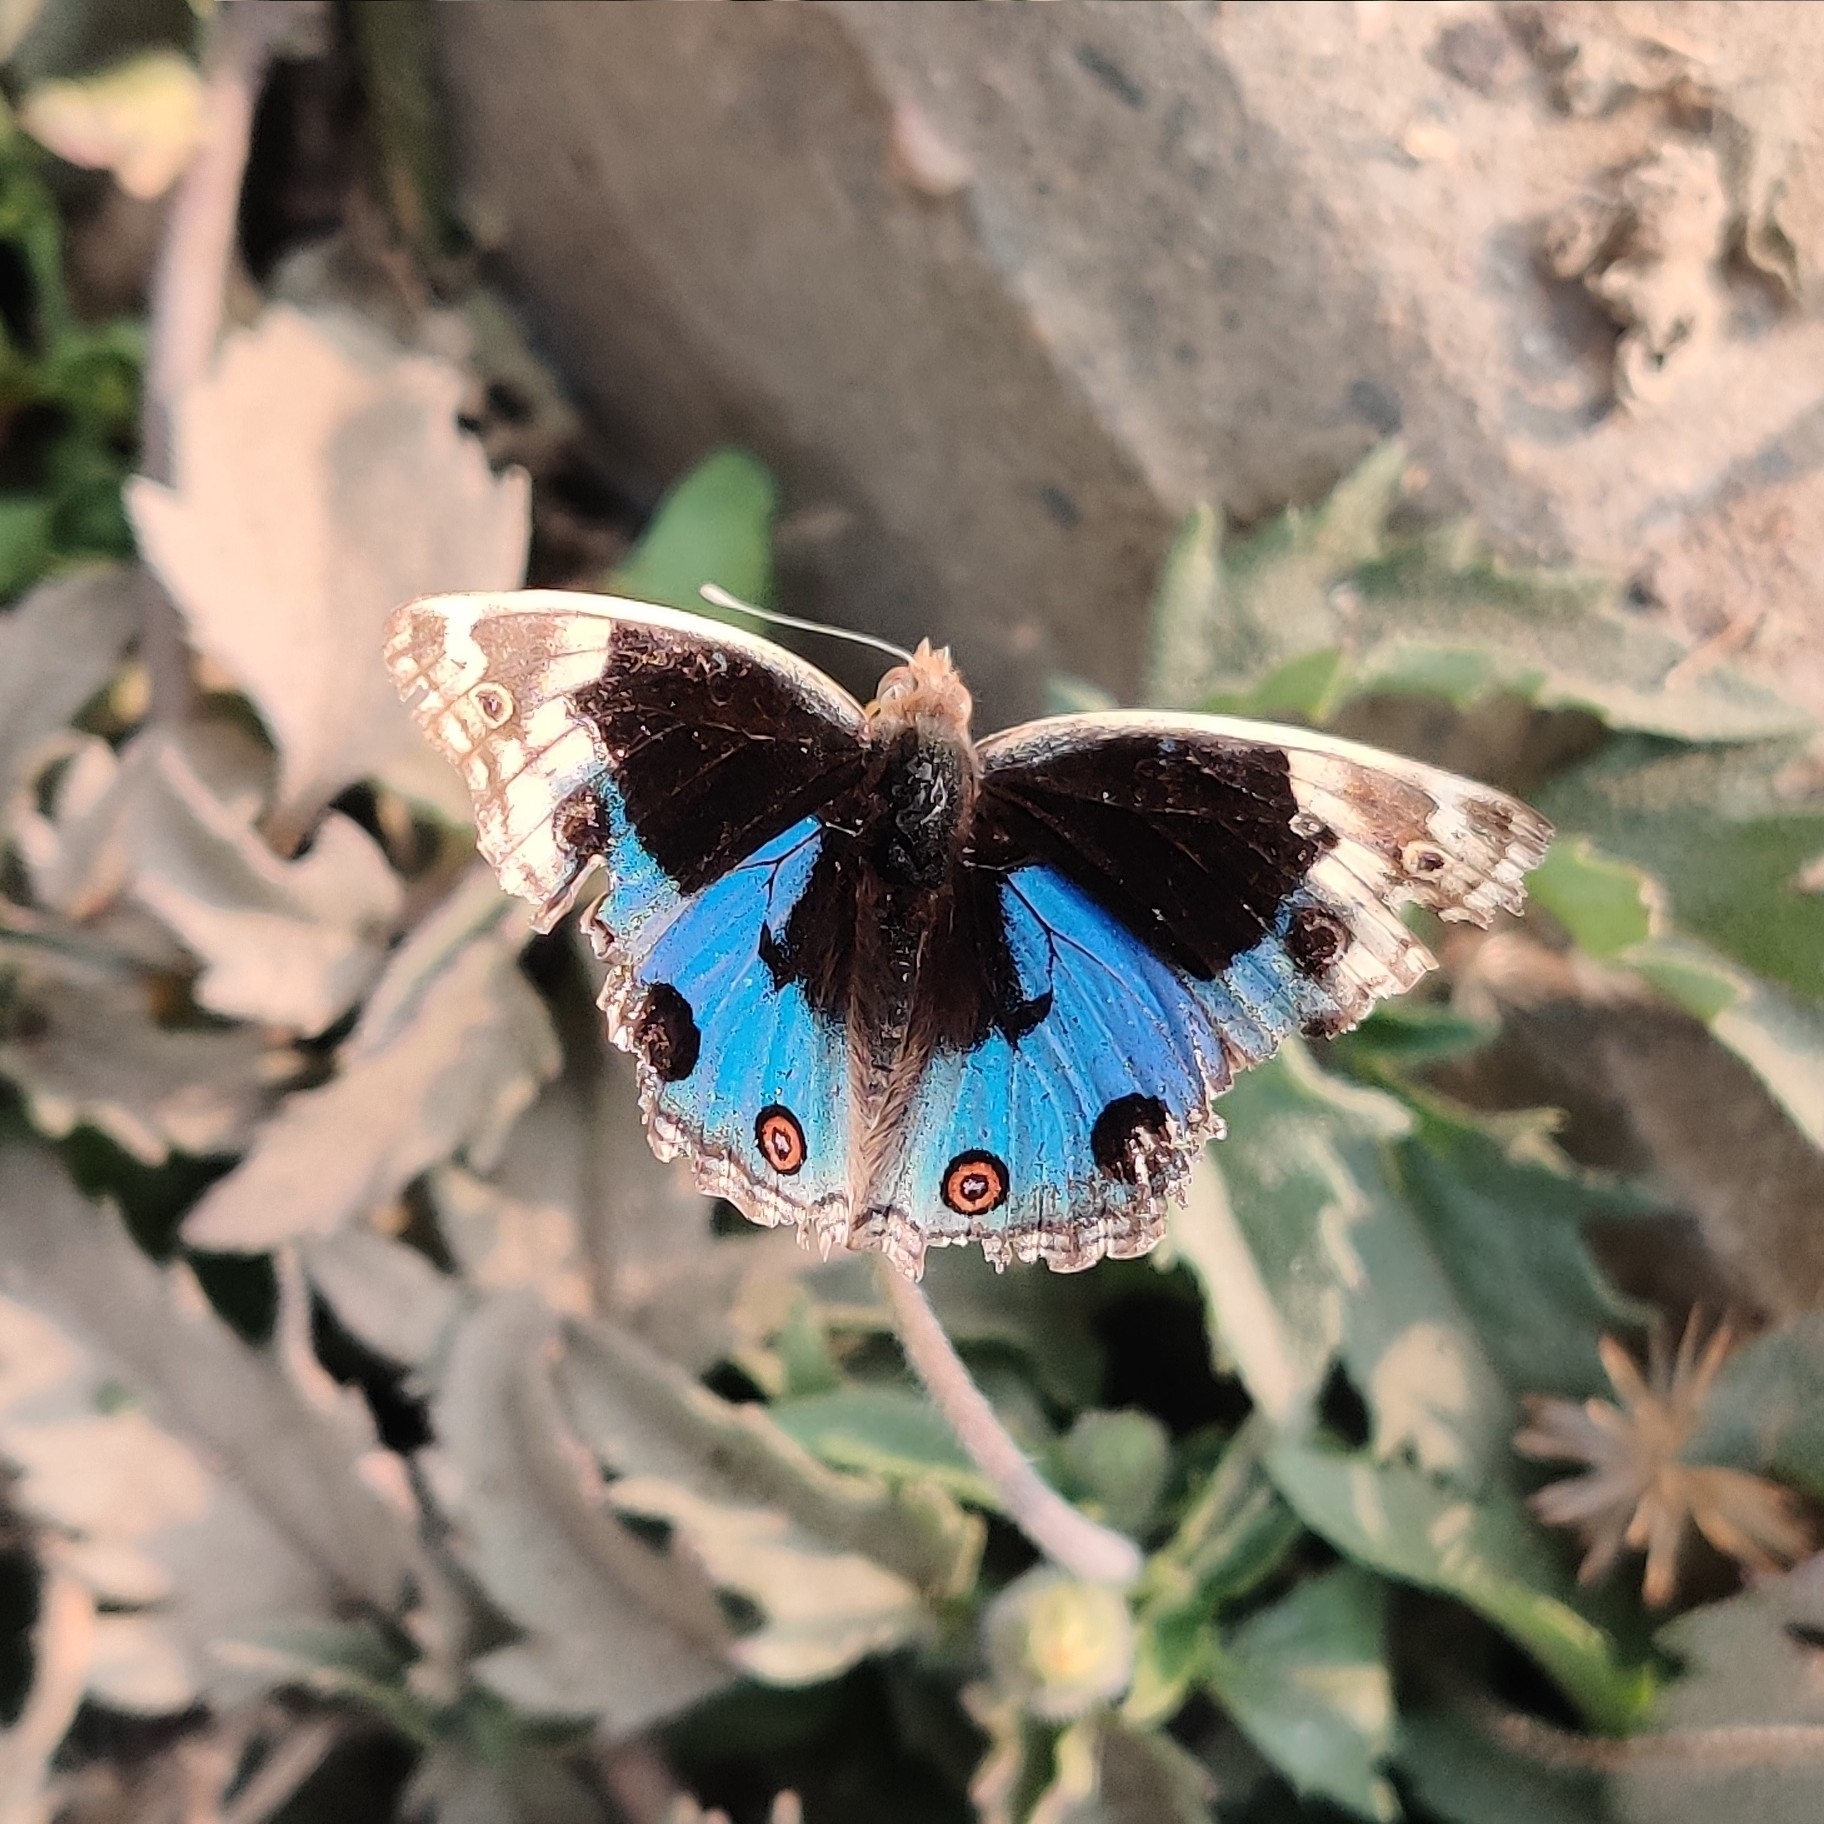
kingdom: Animalia
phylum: Arthropoda
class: Insecta
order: Lepidoptera
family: Nymphalidae
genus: Junonia
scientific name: Junonia orithya
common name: Blue pansy
